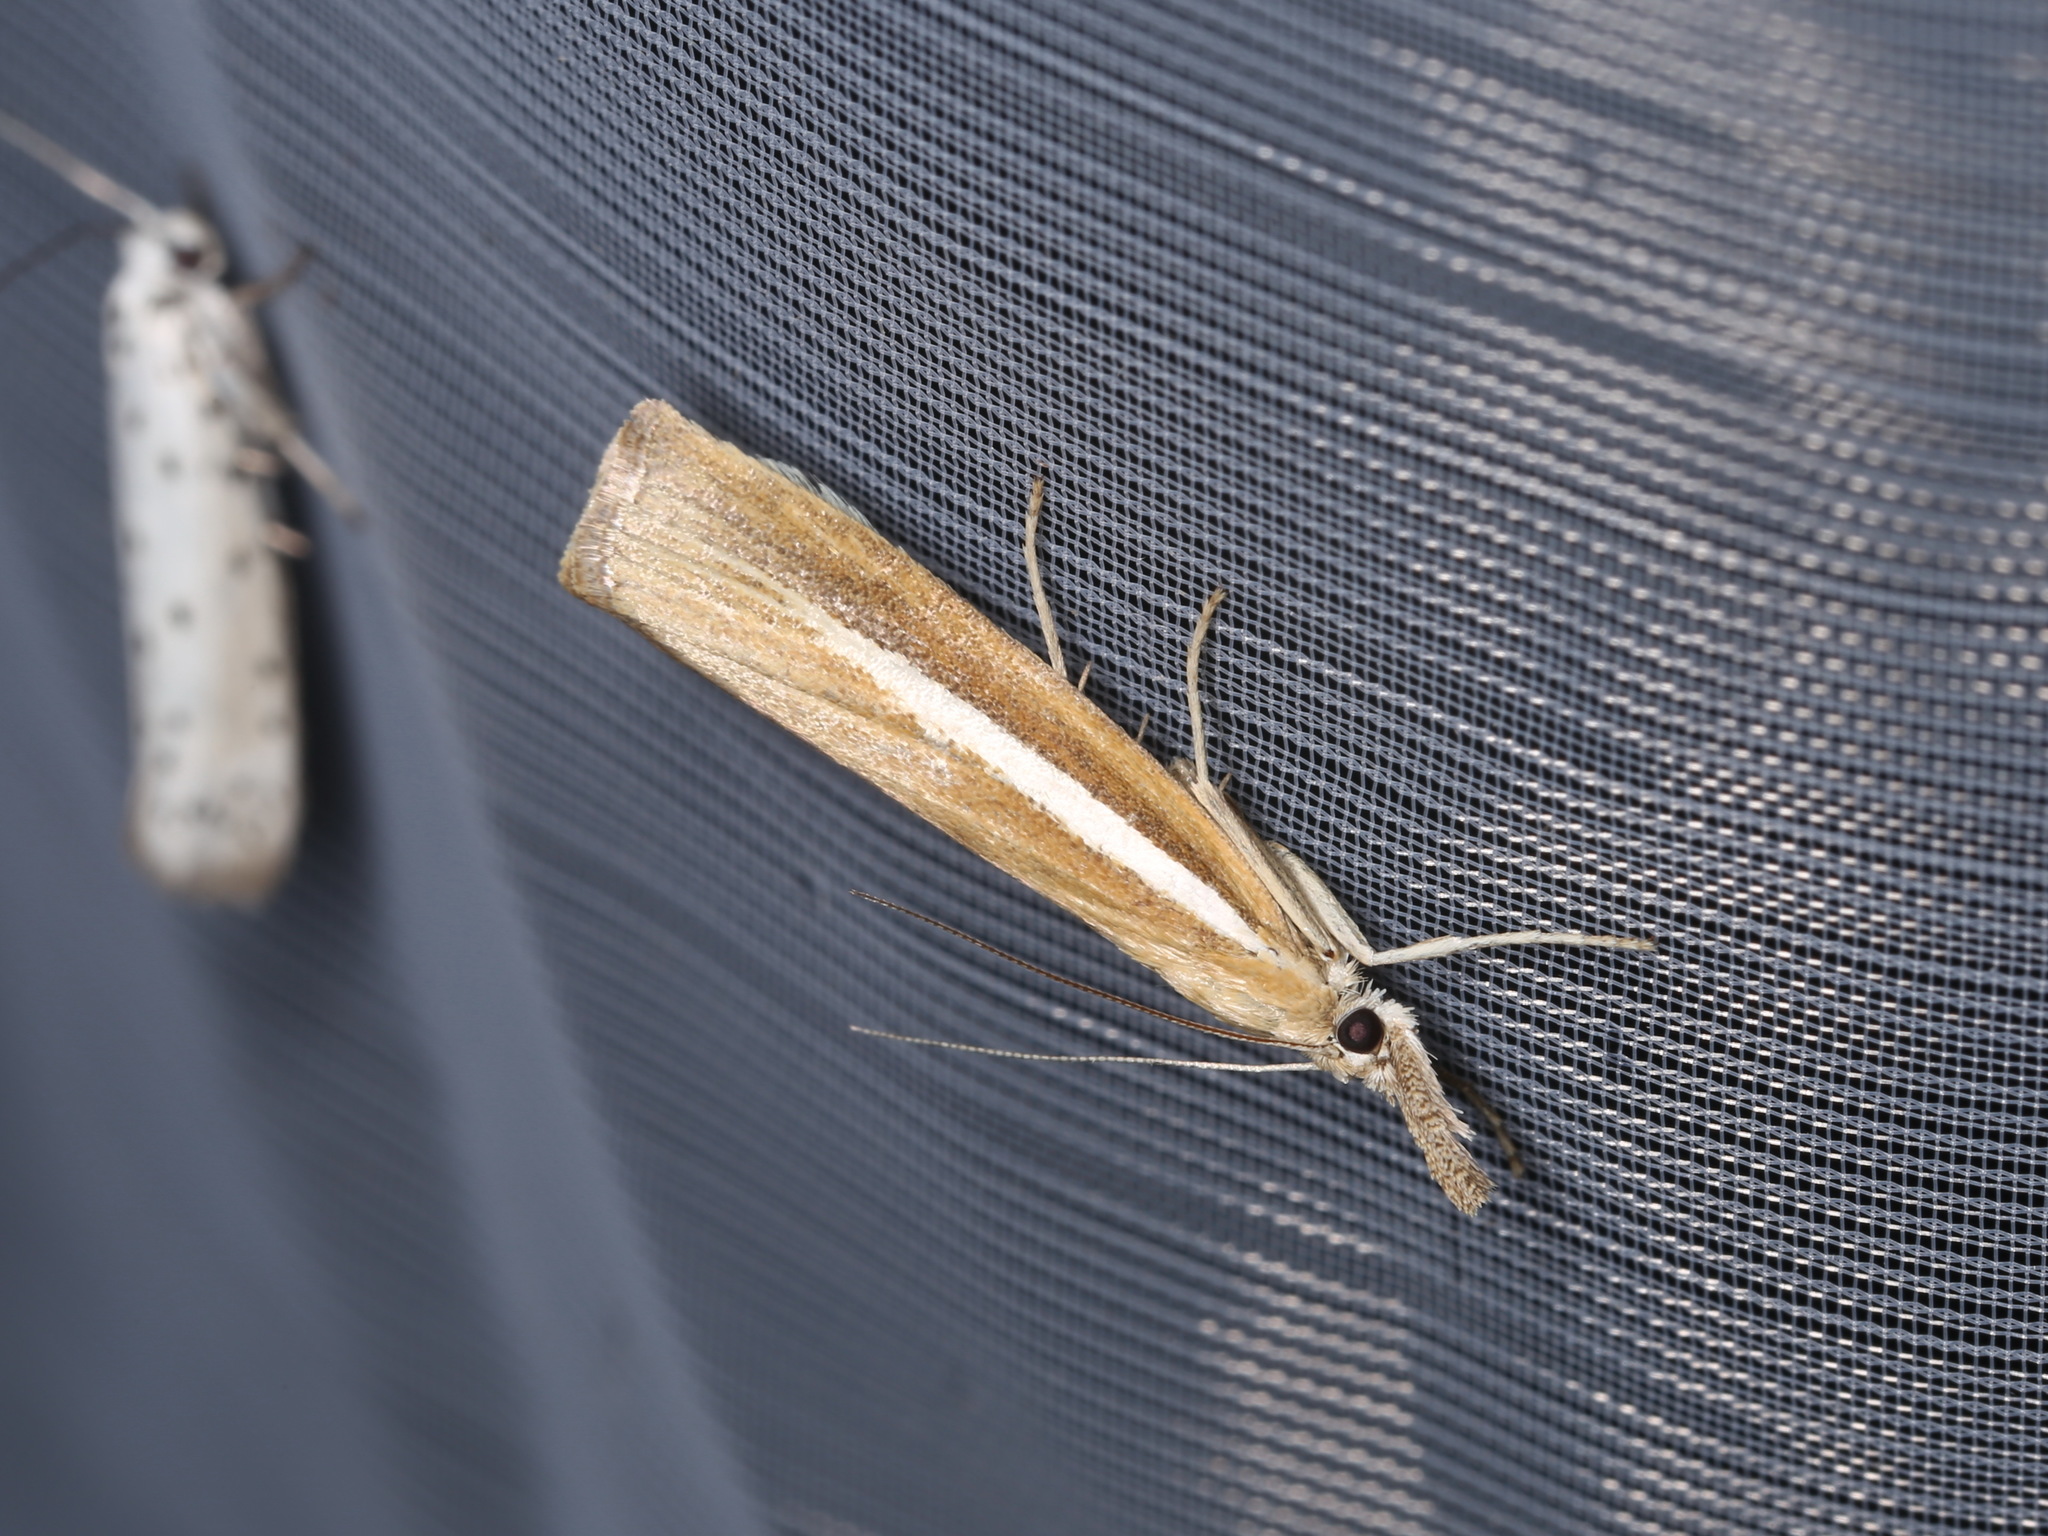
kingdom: Animalia
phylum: Arthropoda
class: Insecta
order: Lepidoptera
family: Crambidae
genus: Agriphila
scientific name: Agriphila selasella
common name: Pale-streak grass-veneer
